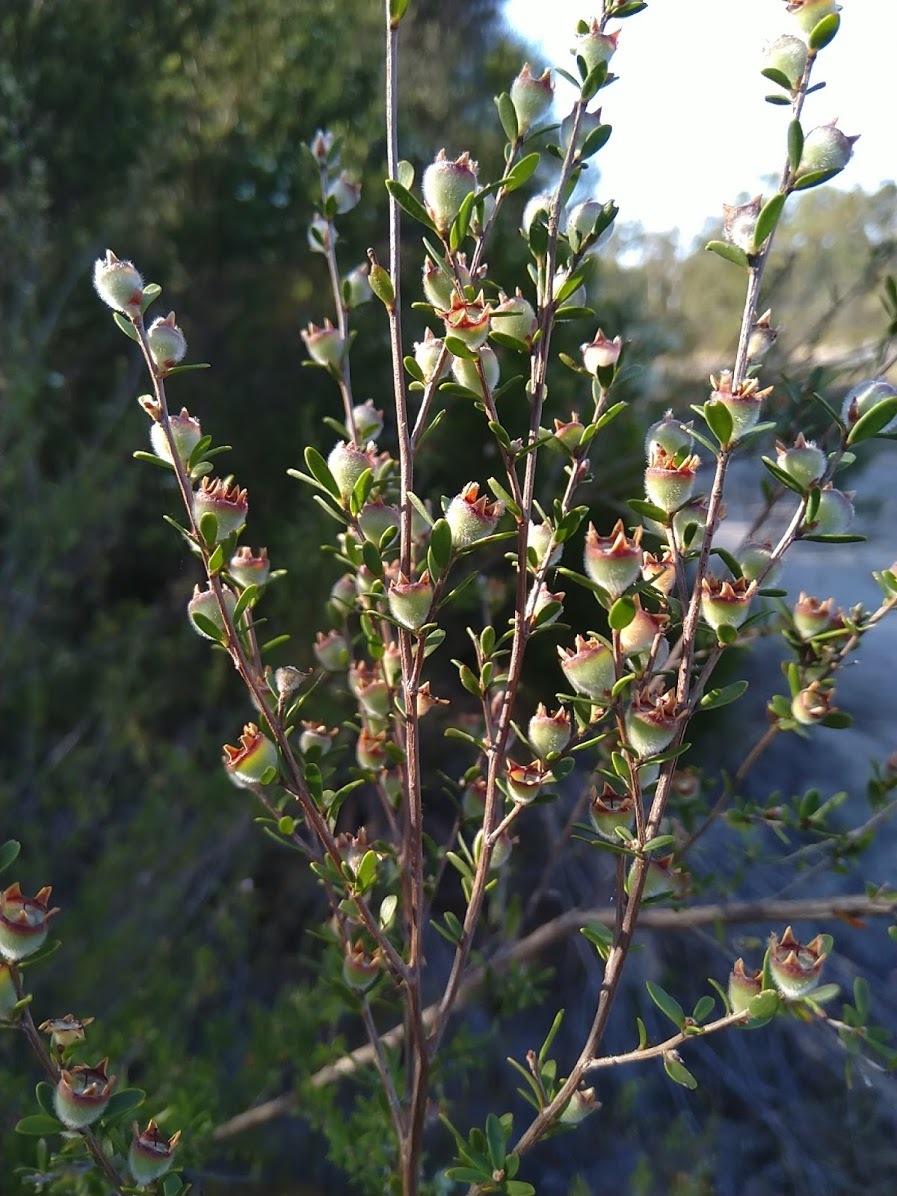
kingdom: Plantae
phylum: Tracheophyta
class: Magnoliopsida
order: Myrtales
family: Myrtaceae
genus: Leptospermum
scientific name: Leptospermum polygalifolium
